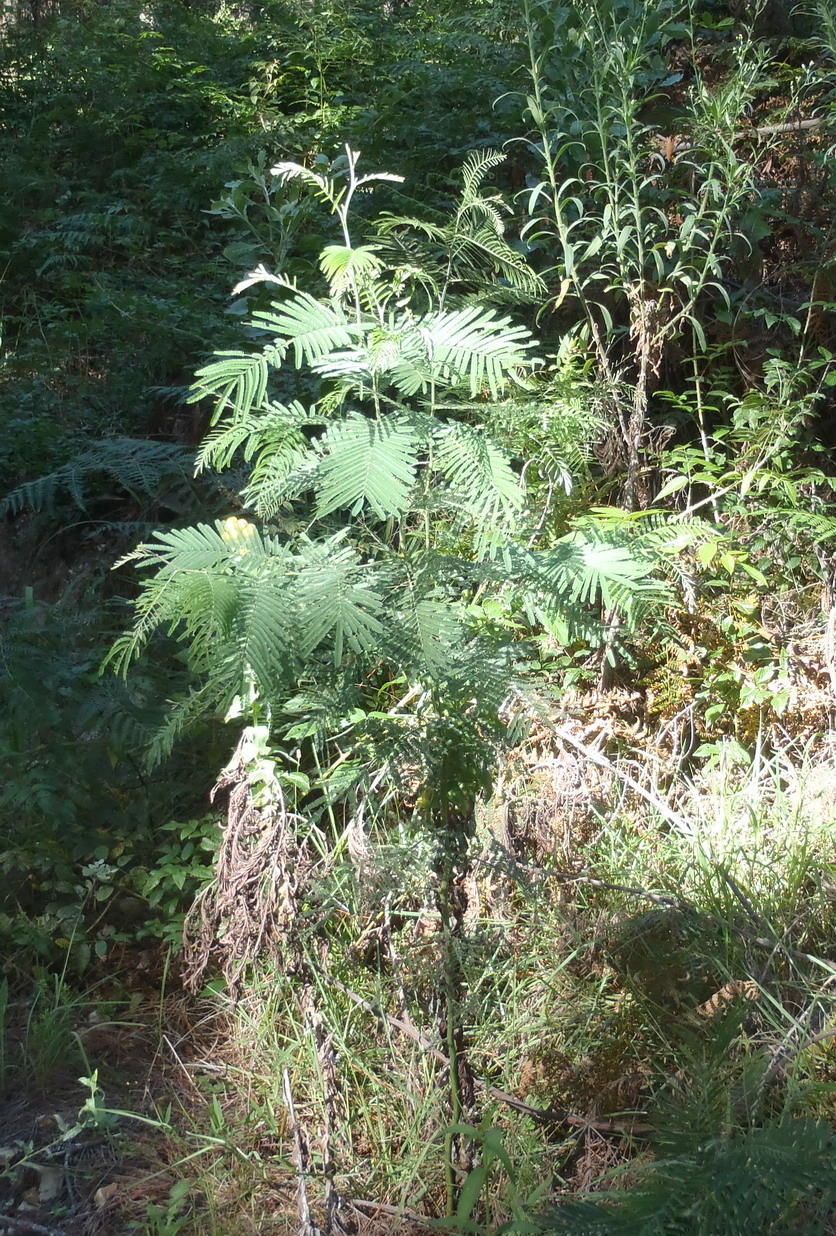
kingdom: Plantae
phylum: Tracheophyta
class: Magnoliopsida
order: Fabales
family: Fabaceae
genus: Acacia
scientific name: Acacia mearnsii
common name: Black wattle
